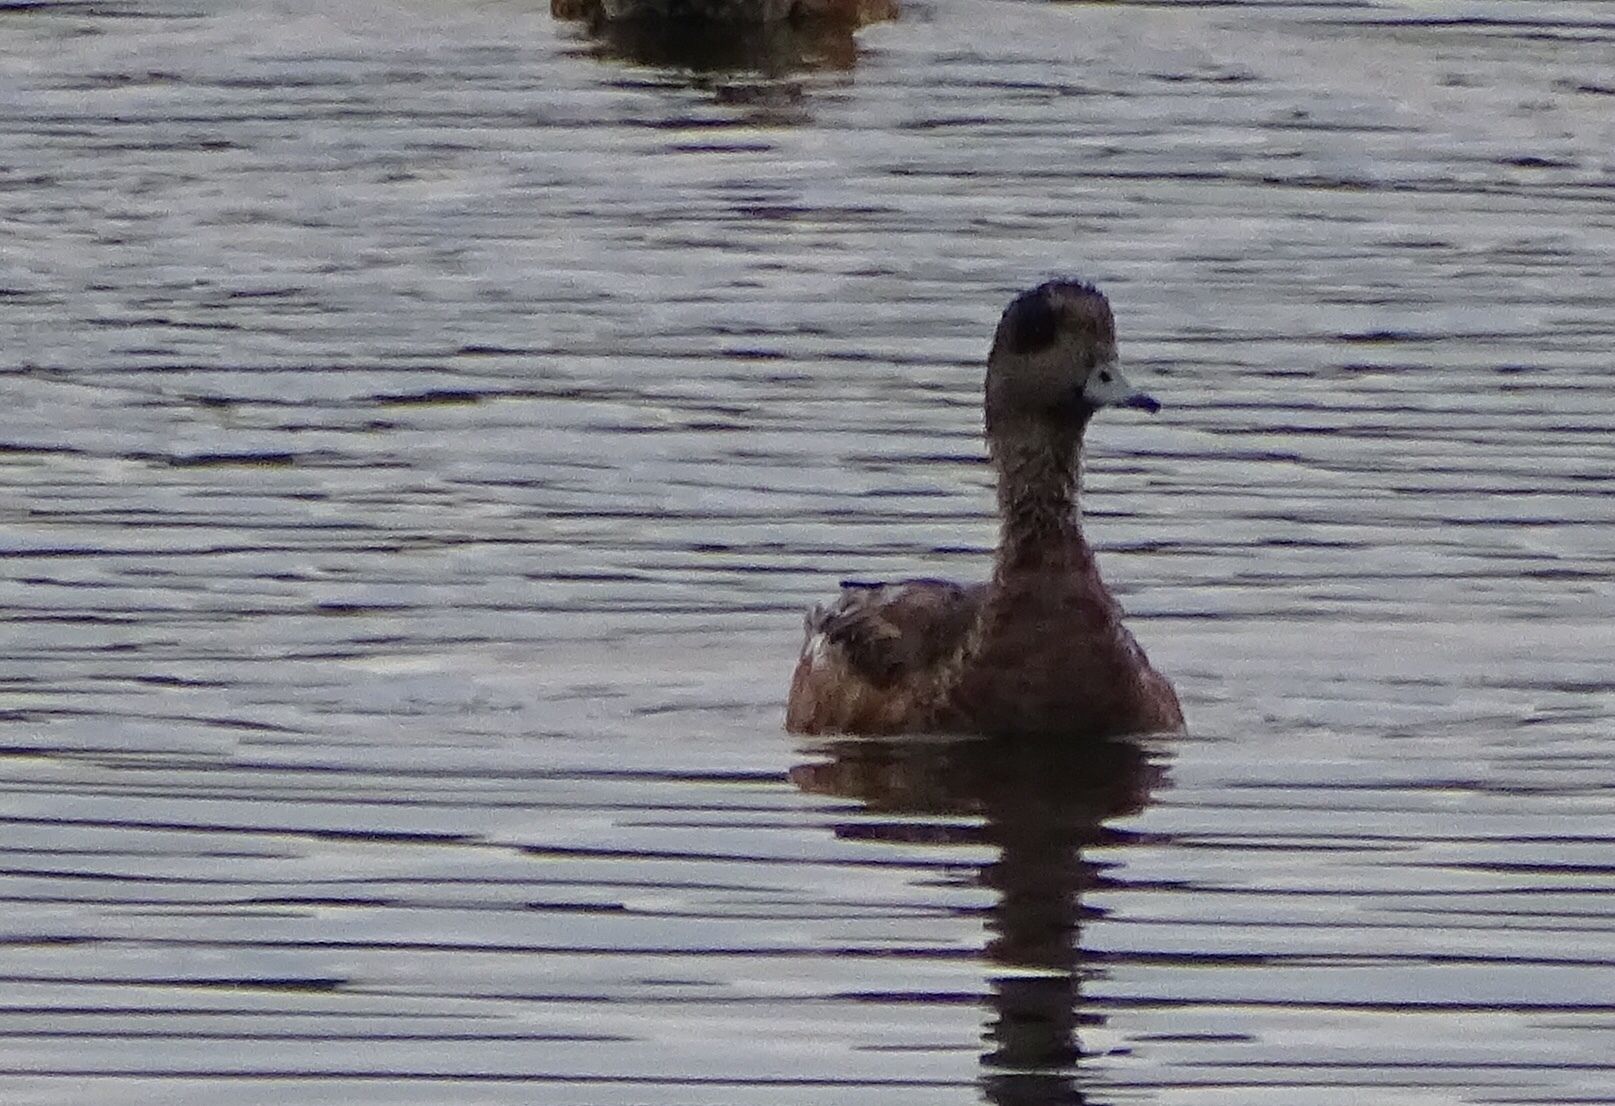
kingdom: Animalia
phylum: Chordata
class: Aves
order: Anseriformes
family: Anatidae
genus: Mareca
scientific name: Mareca americana
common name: American wigeon
